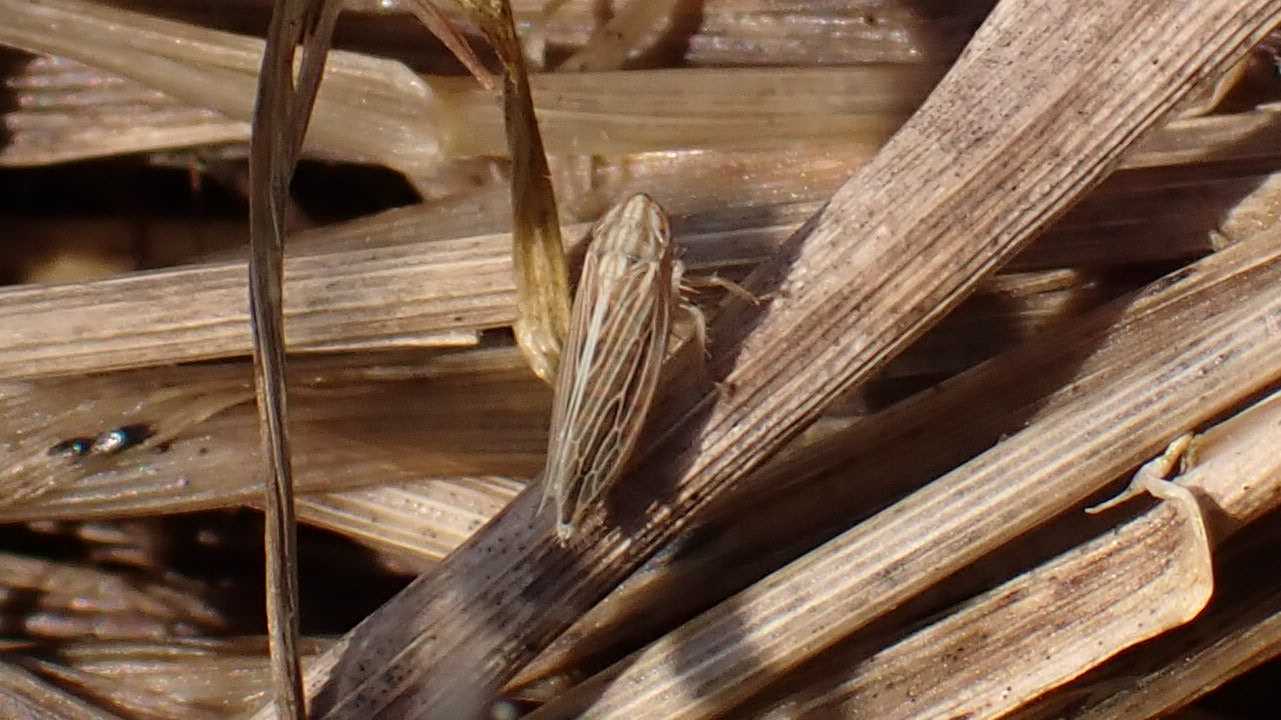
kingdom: Animalia
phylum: Arthropoda
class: Insecta
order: Hemiptera
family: Cicadellidae
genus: Mocydia
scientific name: Mocydia crocea
